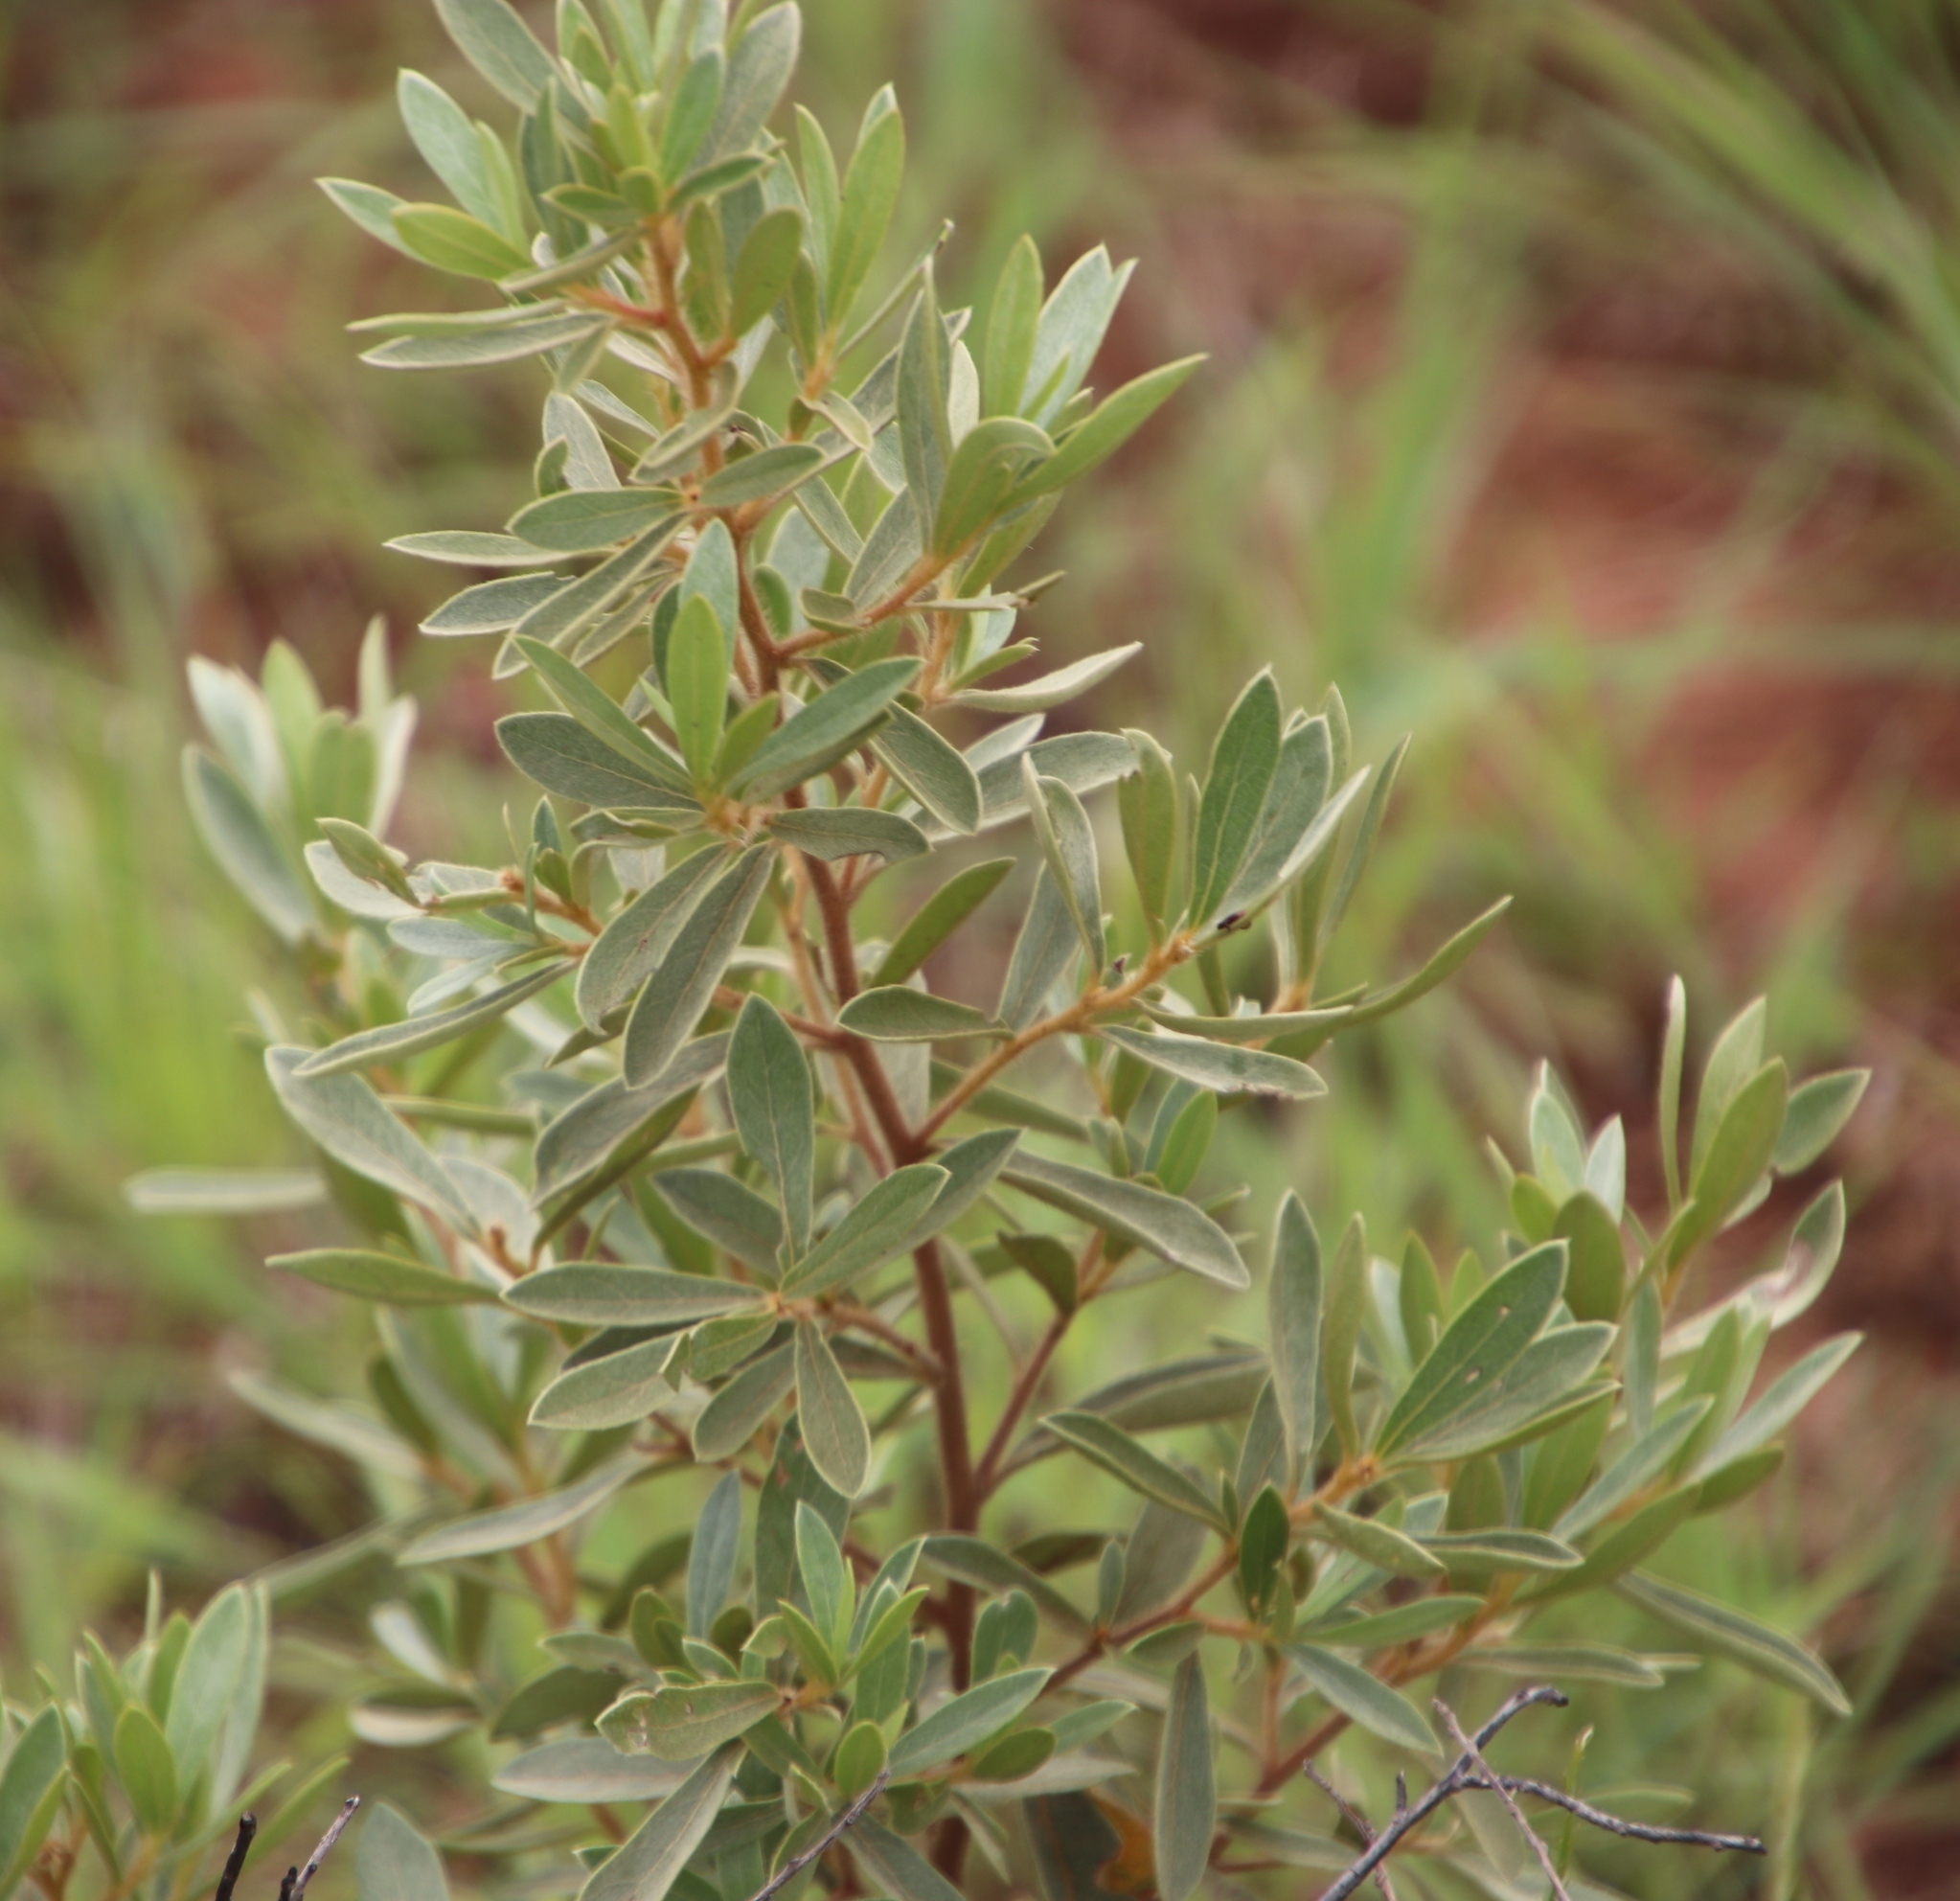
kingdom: Plantae
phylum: Tracheophyta
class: Magnoliopsida
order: Ericales
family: Ebenaceae
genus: Diospyros
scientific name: Diospyros lycioides
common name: Red star apple
